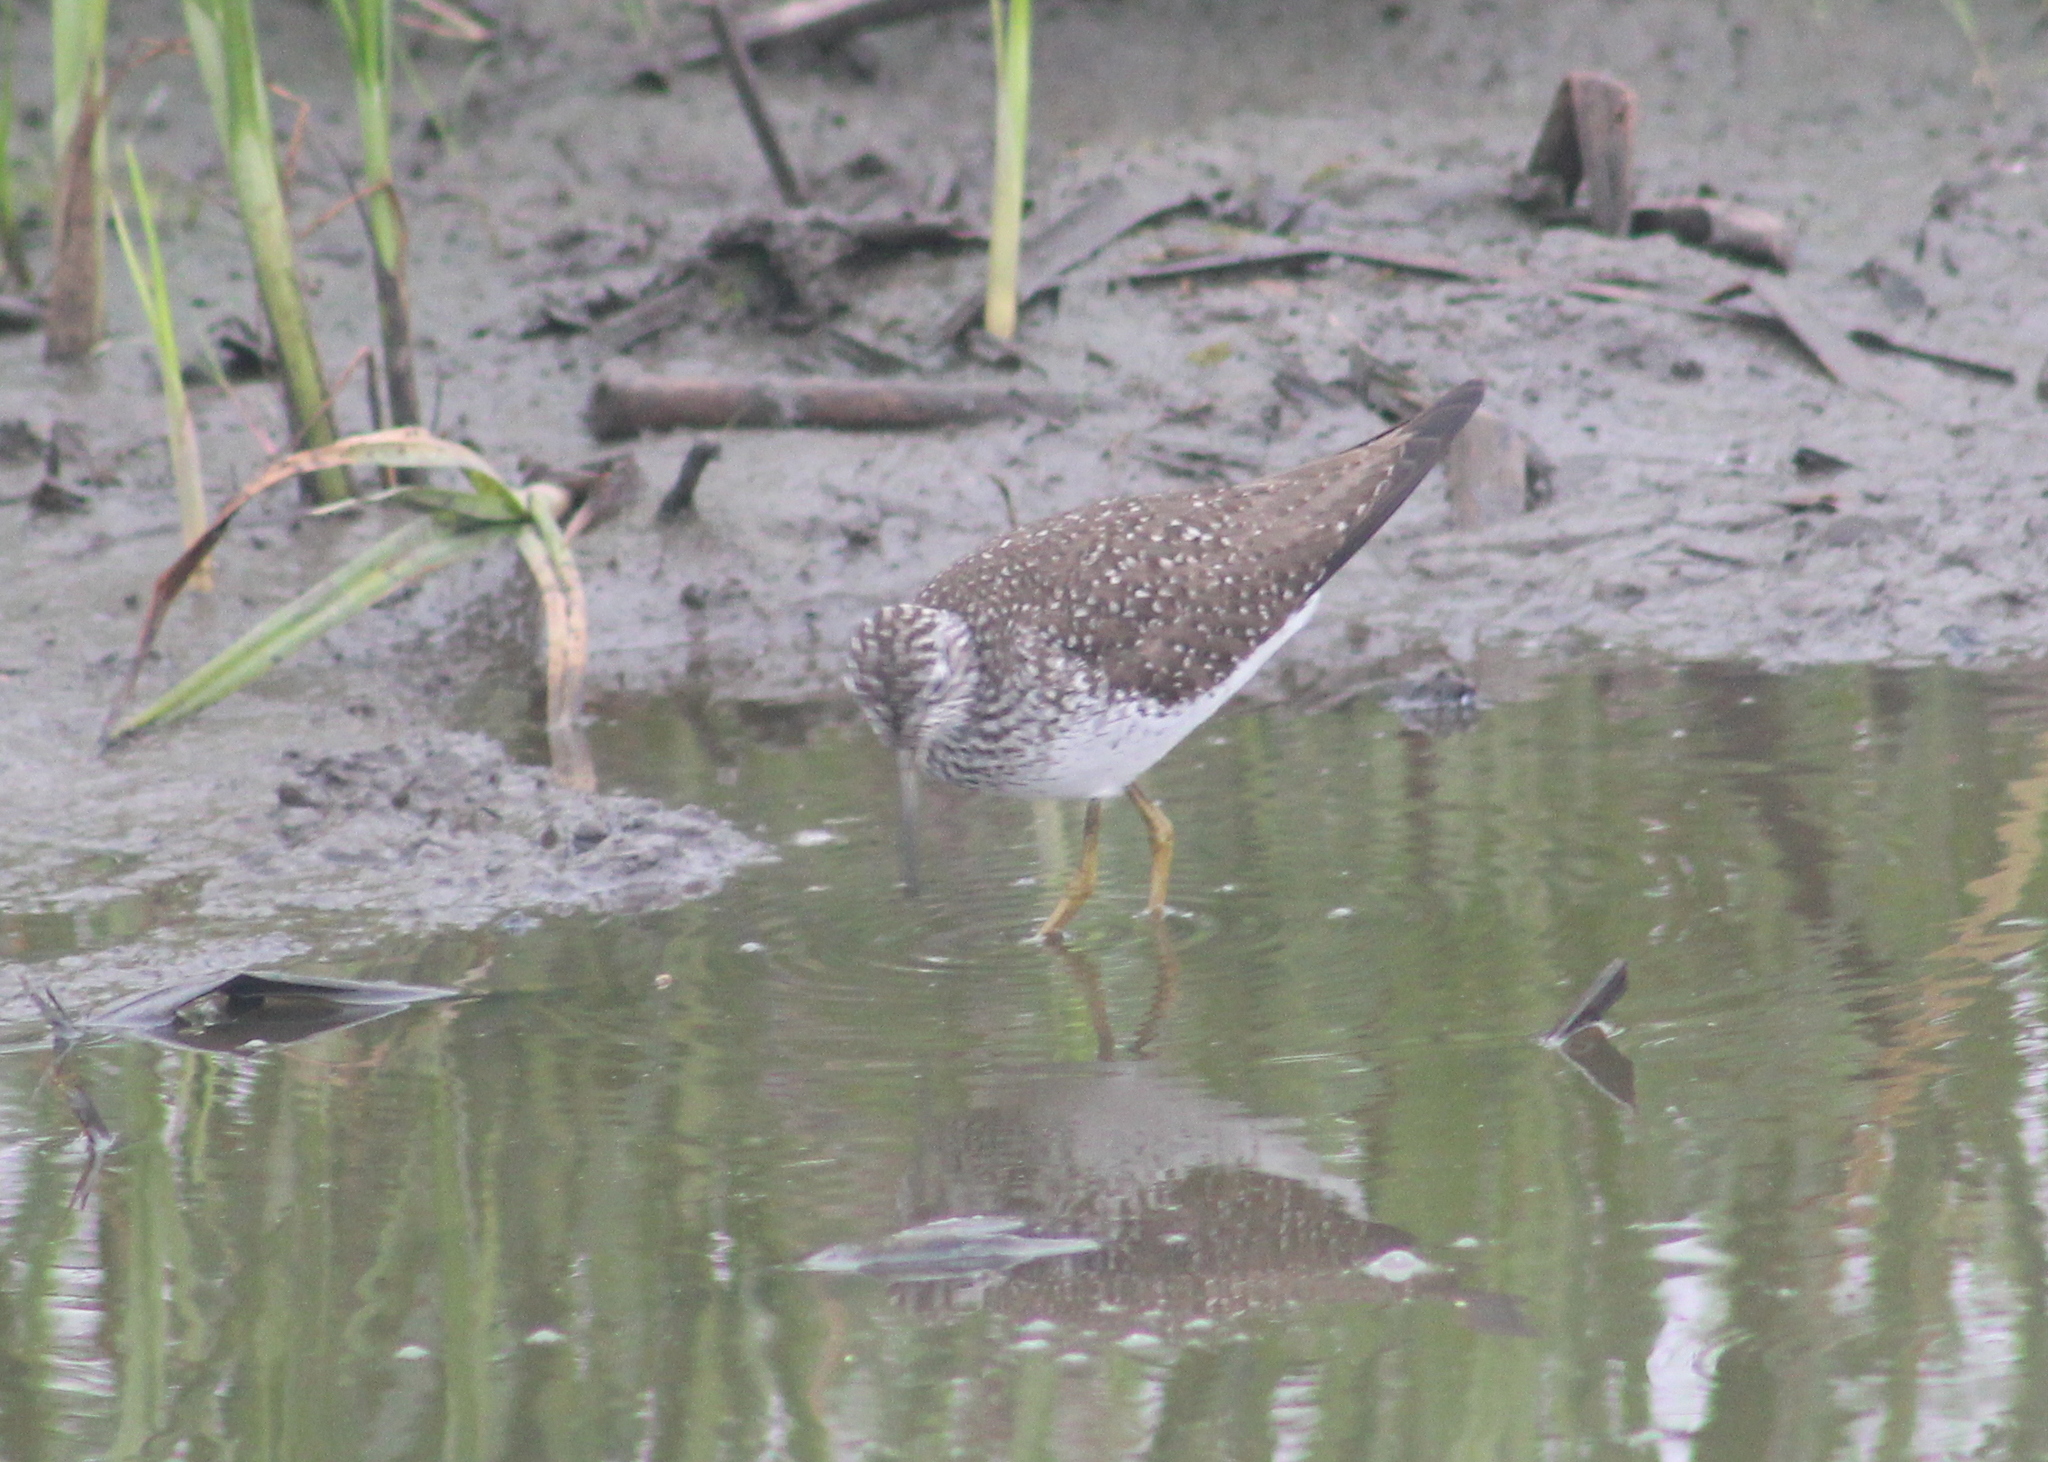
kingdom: Animalia
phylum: Chordata
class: Aves
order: Charadriiformes
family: Scolopacidae
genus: Tringa
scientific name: Tringa solitaria
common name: Solitary sandpiper
